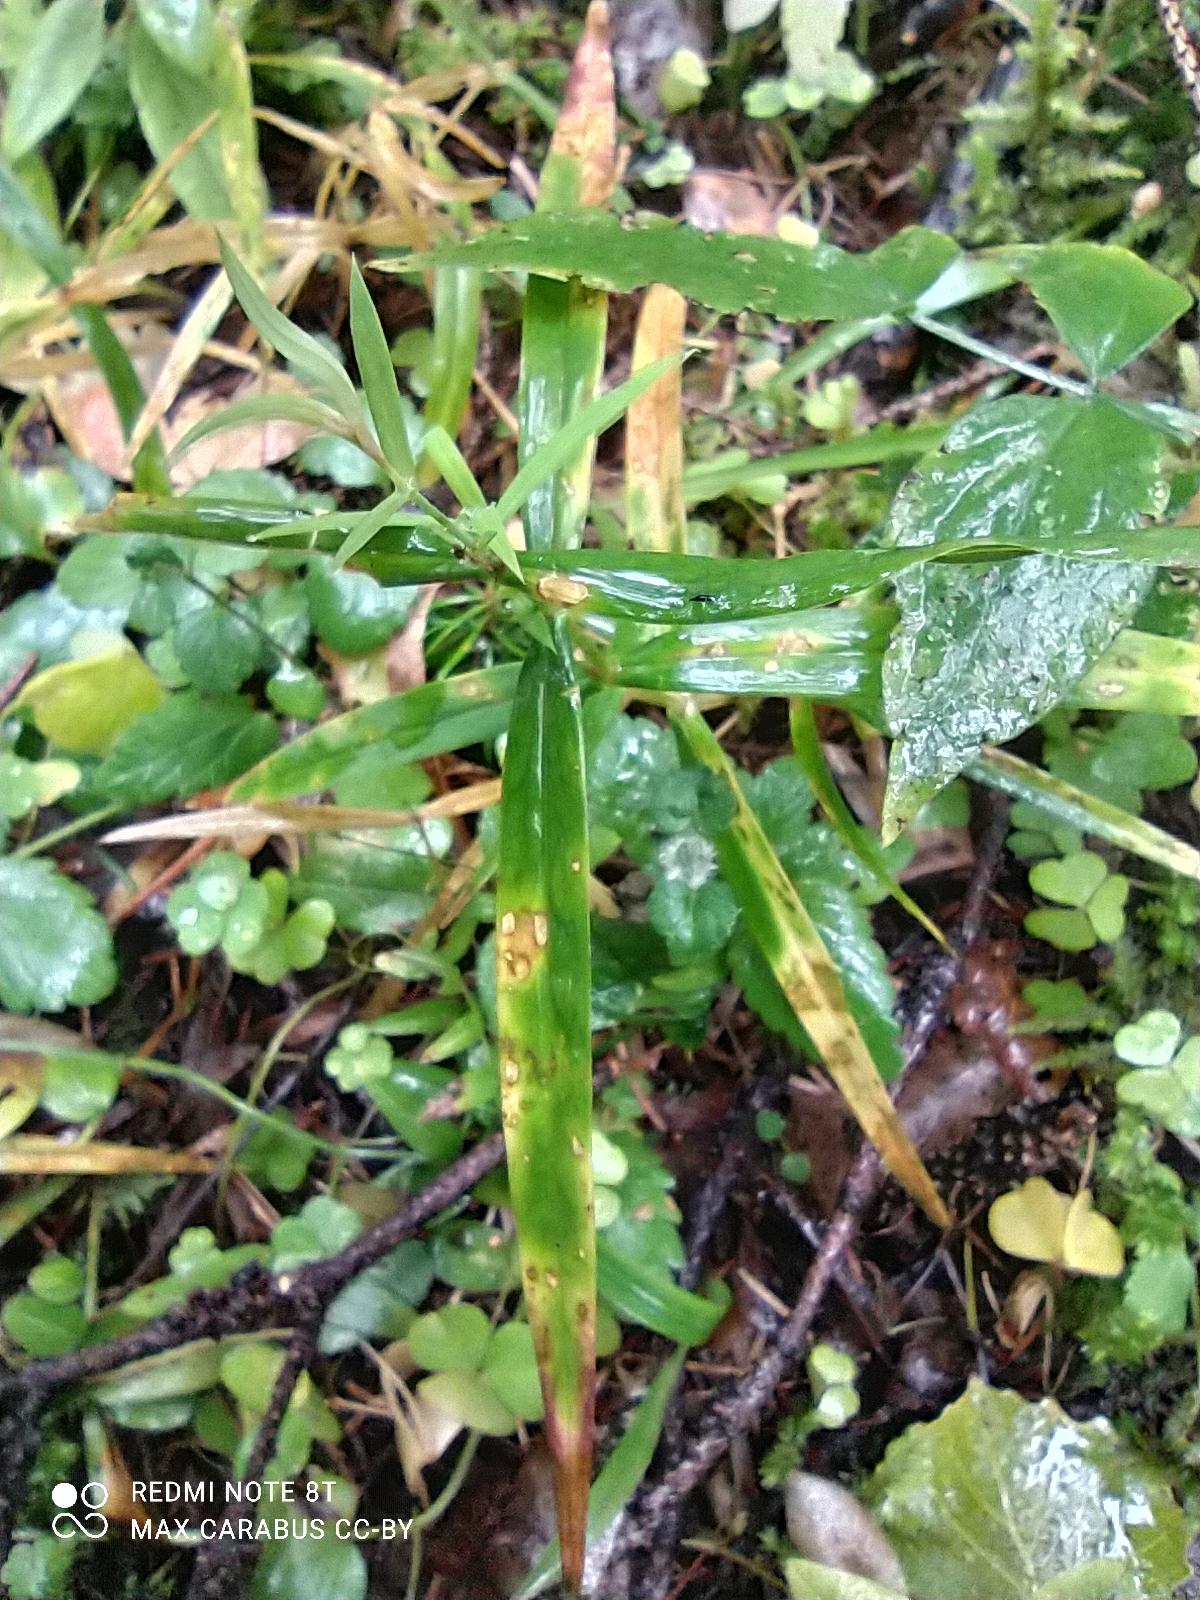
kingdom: Plantae
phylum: Tracheophyta
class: Magnoliopsida
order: Caryophyllales
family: Caryophyllaceae
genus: Rabelera
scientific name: Rabelera holostea
